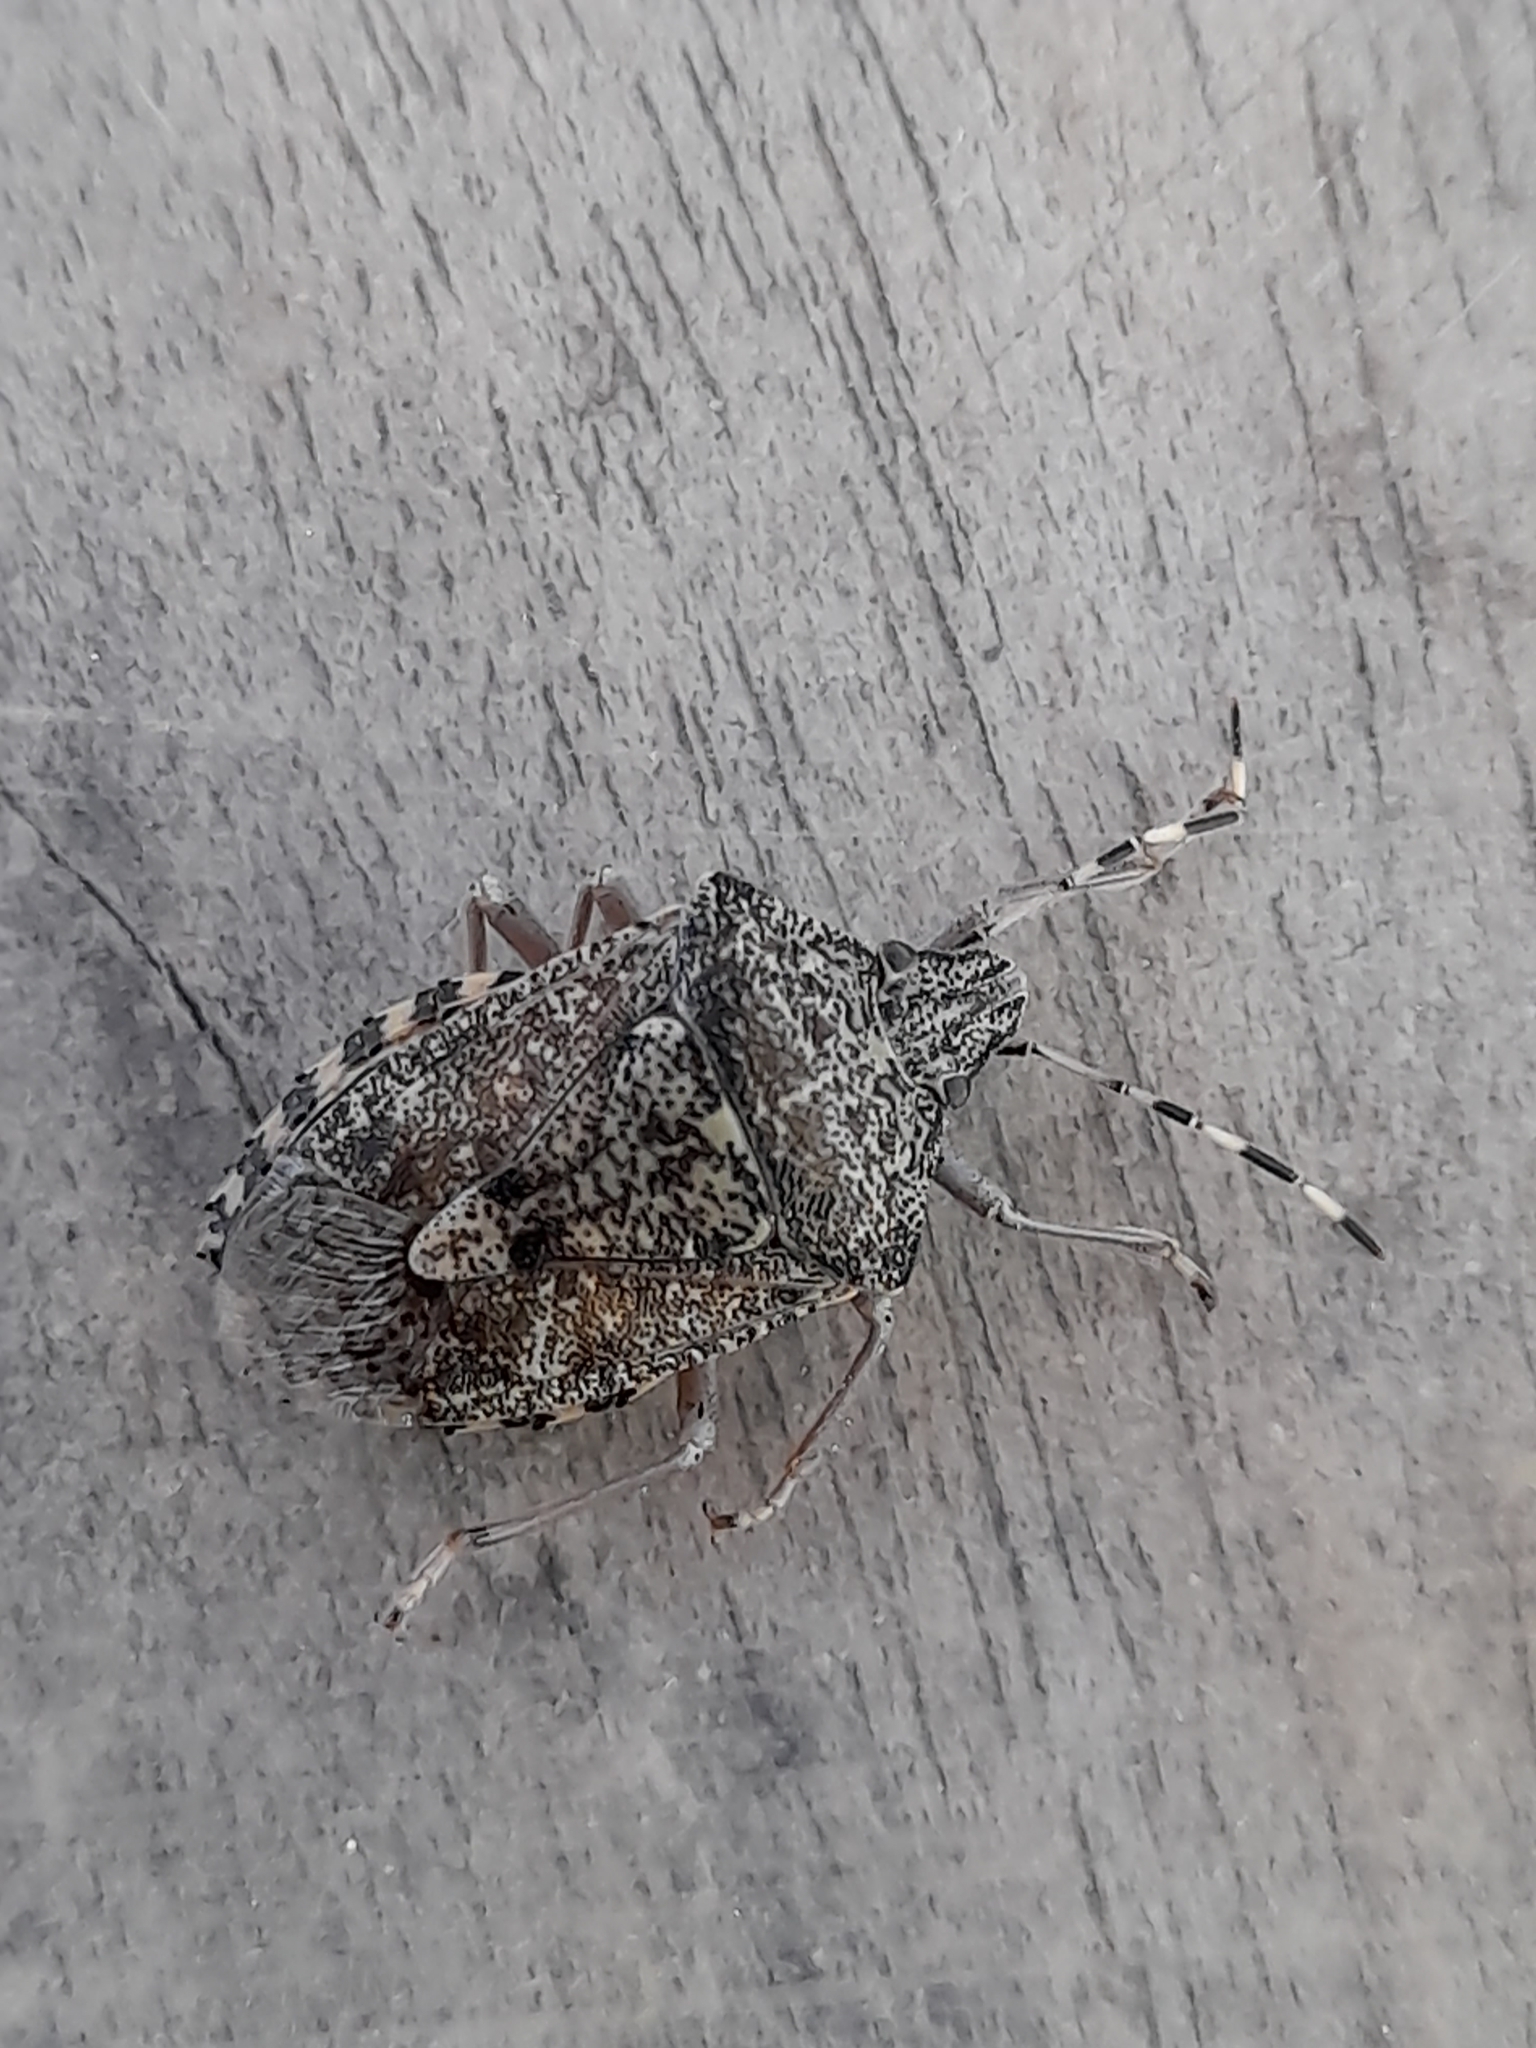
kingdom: Animalia
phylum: Arthropoda
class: Insecta
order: Hemiptera
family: Pentatomidae
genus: Rhaphigaster
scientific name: Rhaphigaster nebulosa
